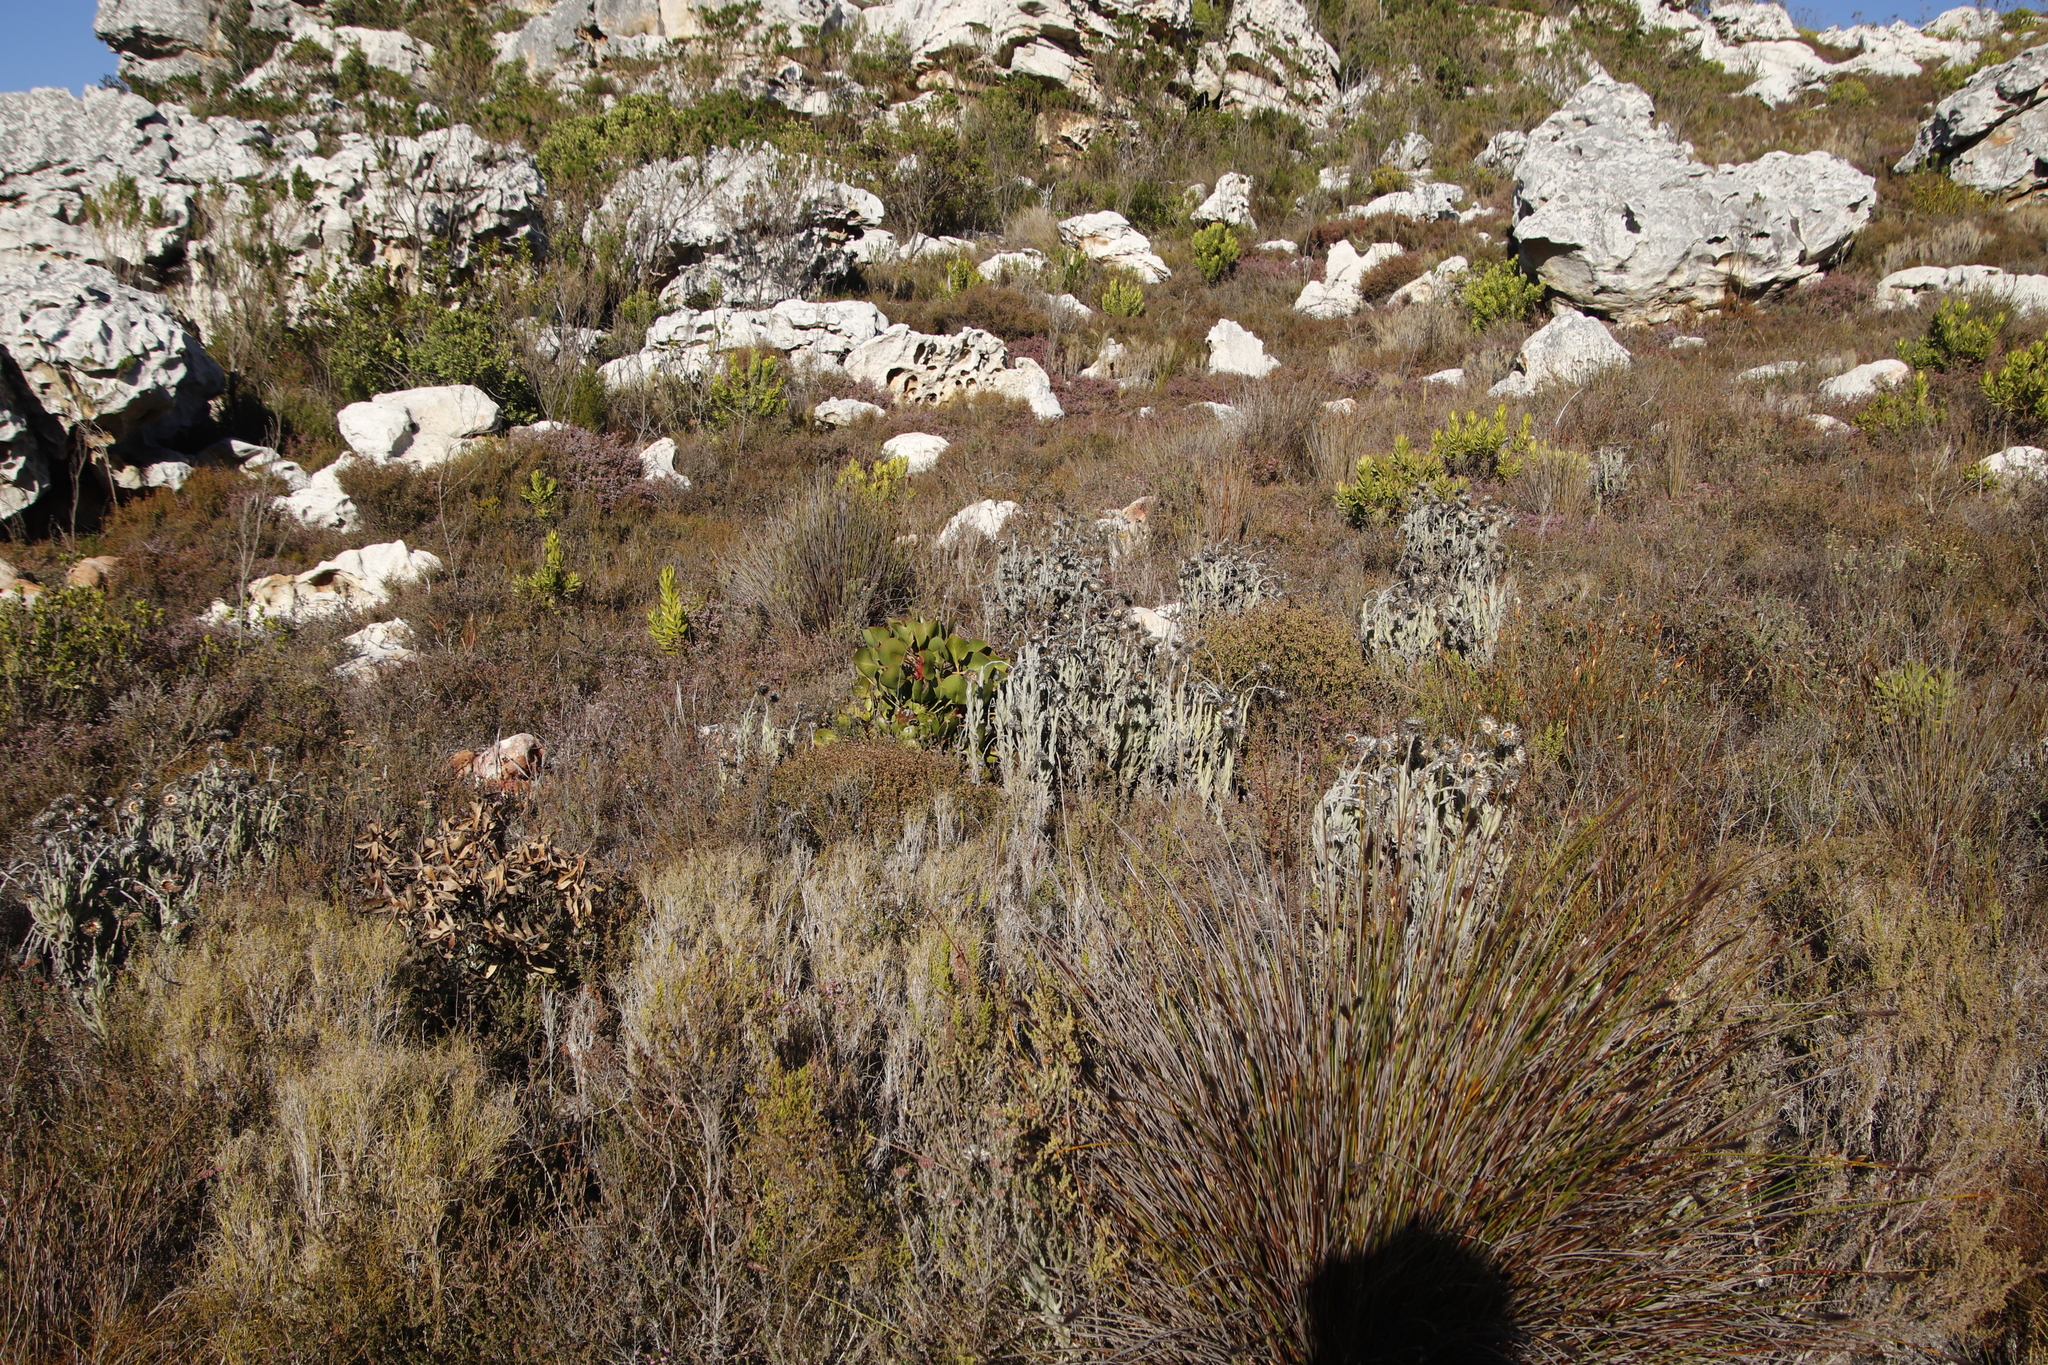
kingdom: Plantae
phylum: Tracheophyta
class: Magnoliopsida
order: Asterales
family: Asteraceae
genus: Syncarpha
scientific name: Syncarpha vestita
